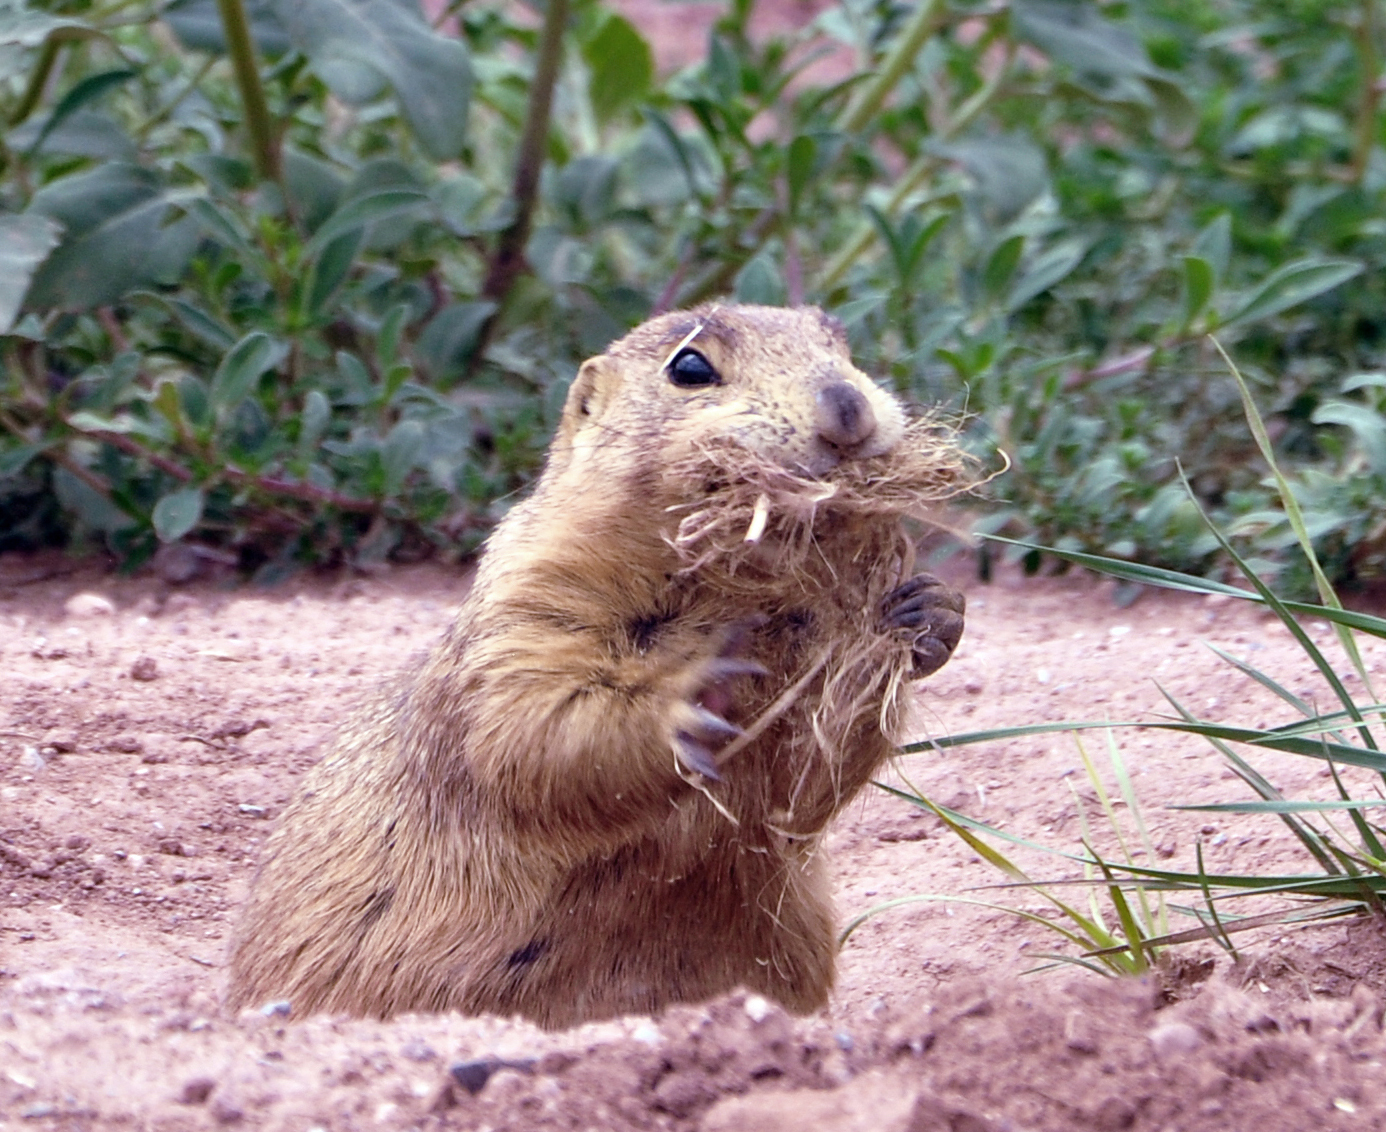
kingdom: Animalia
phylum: Chordata
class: Mammalia
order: Rodentia
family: Sciuridae
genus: Cynomys
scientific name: Cynomys gunnisoni
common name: Gunnison's prairie dog
